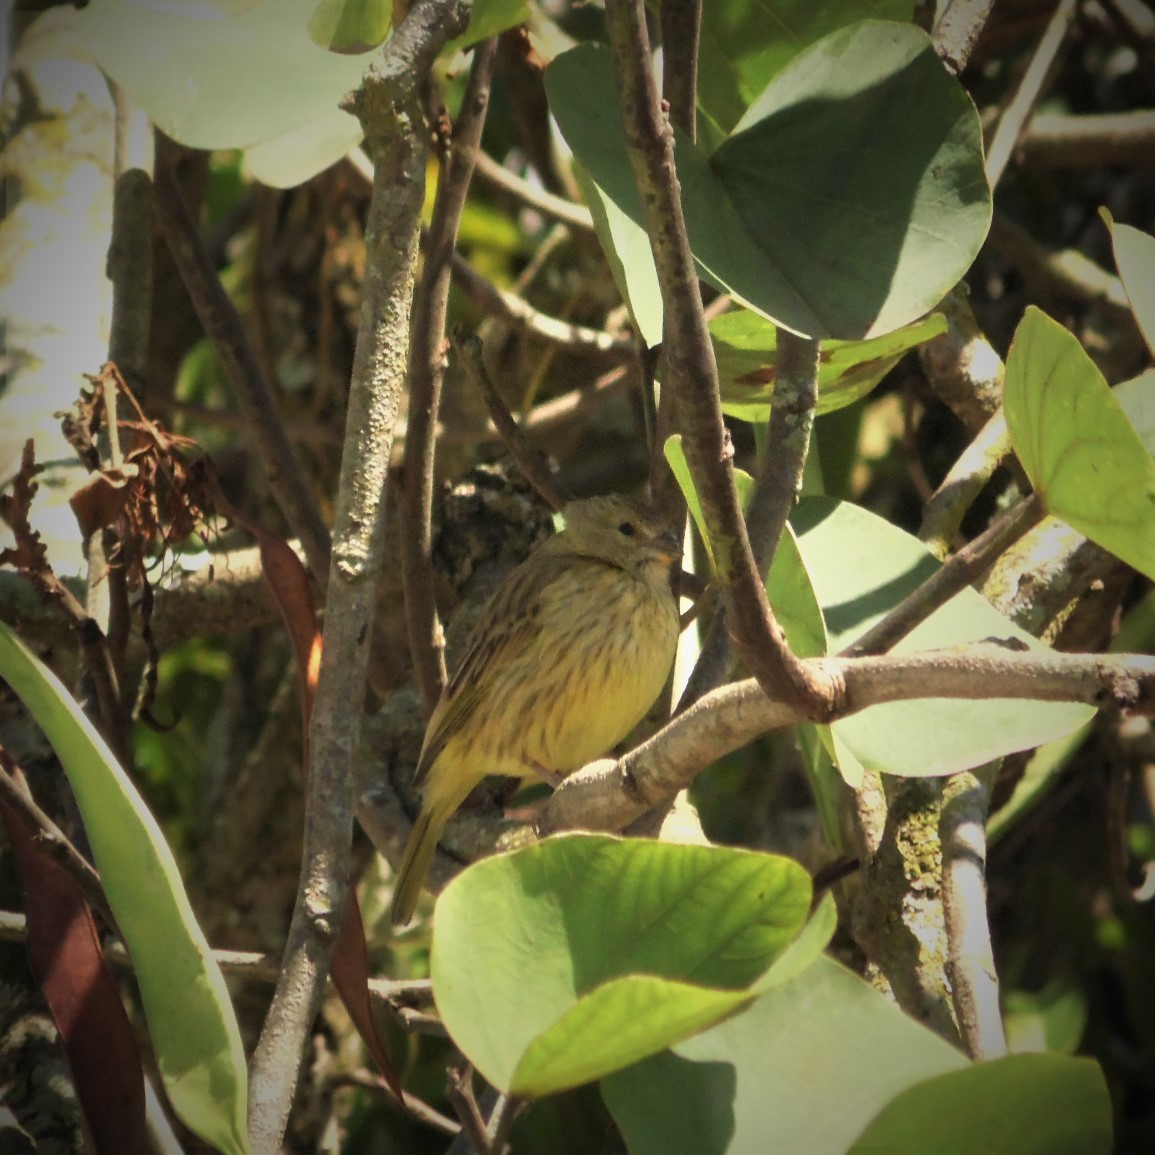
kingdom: Animalia
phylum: Chordata
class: Aves
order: Passeriformes
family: Thraupidae
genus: Sicalis
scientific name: Sicalis flaveola
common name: Saffron finch
